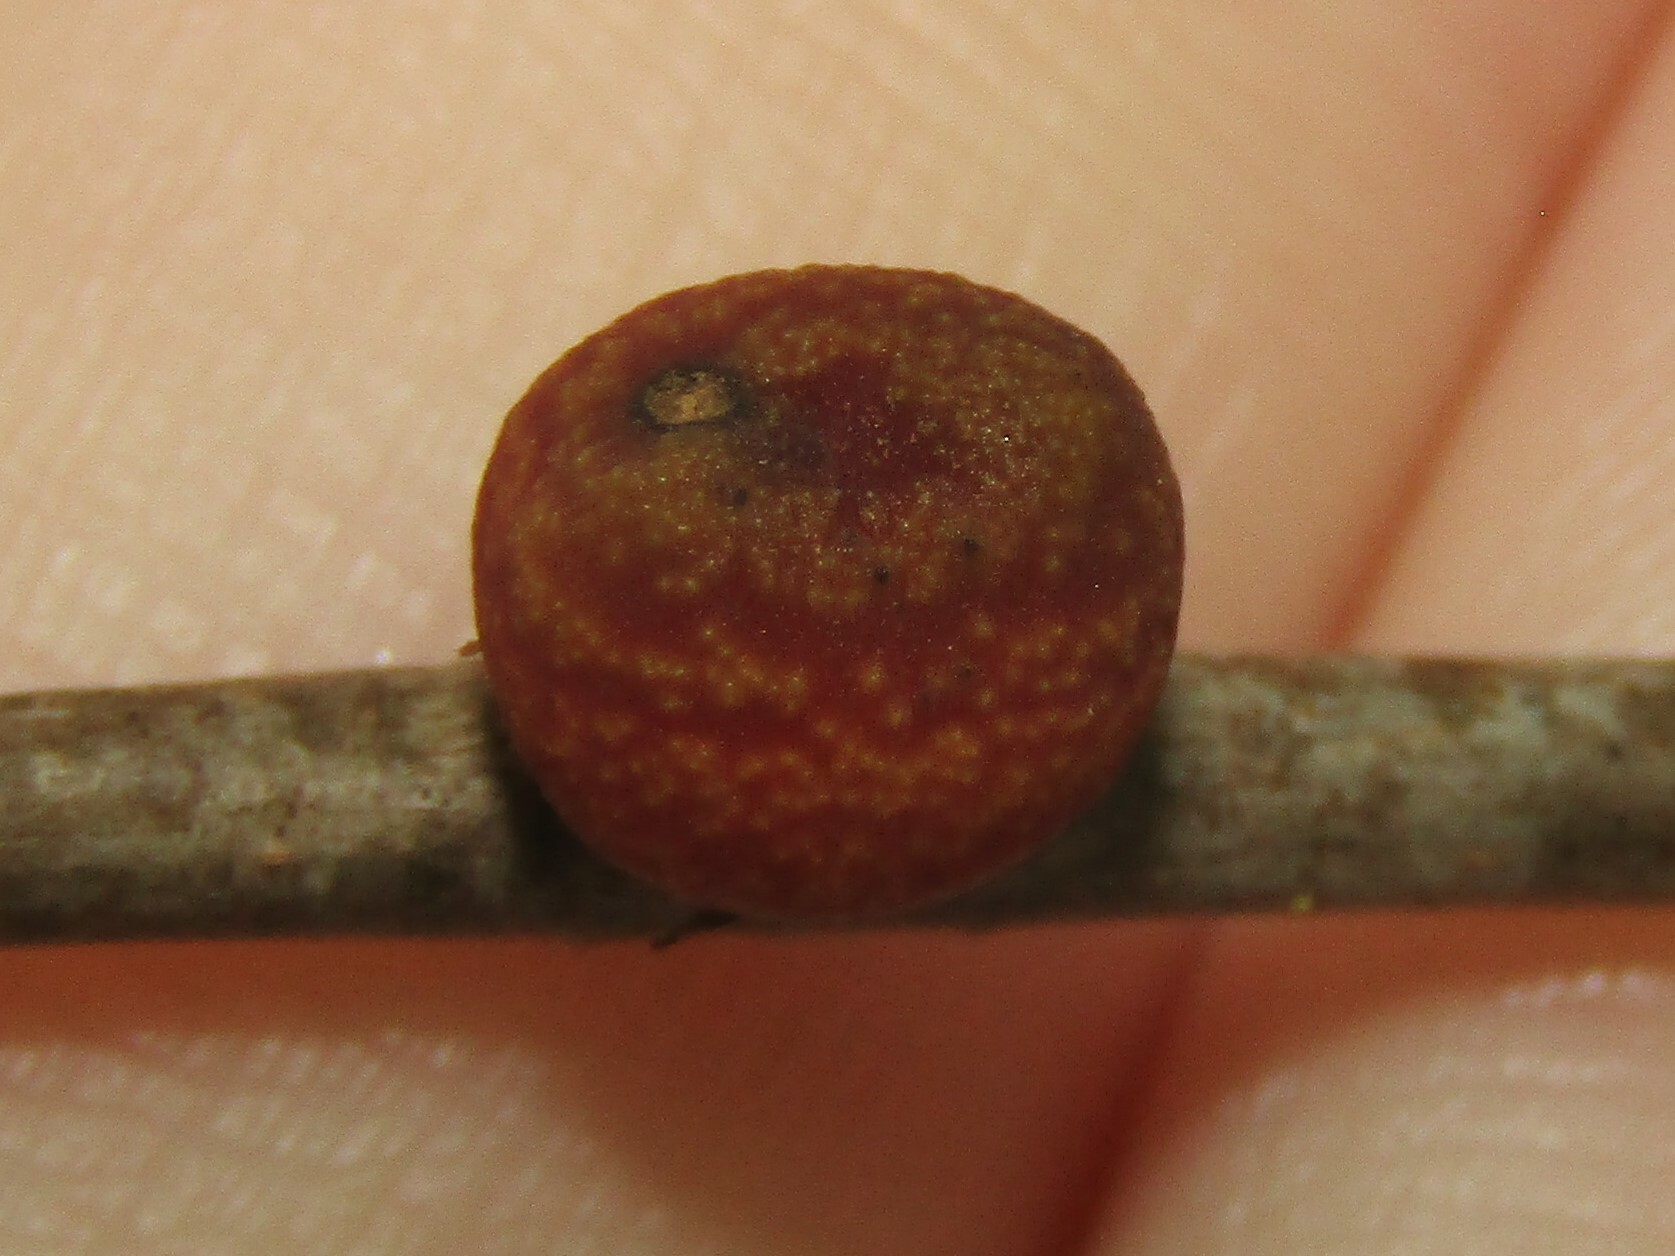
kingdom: Animalia
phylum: Arthropoda
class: Insecta
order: Hymenoptera
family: Cynipidae
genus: Kokkocynips
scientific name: Kokkocynips imbricariae
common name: Banded bullet gall wasp
